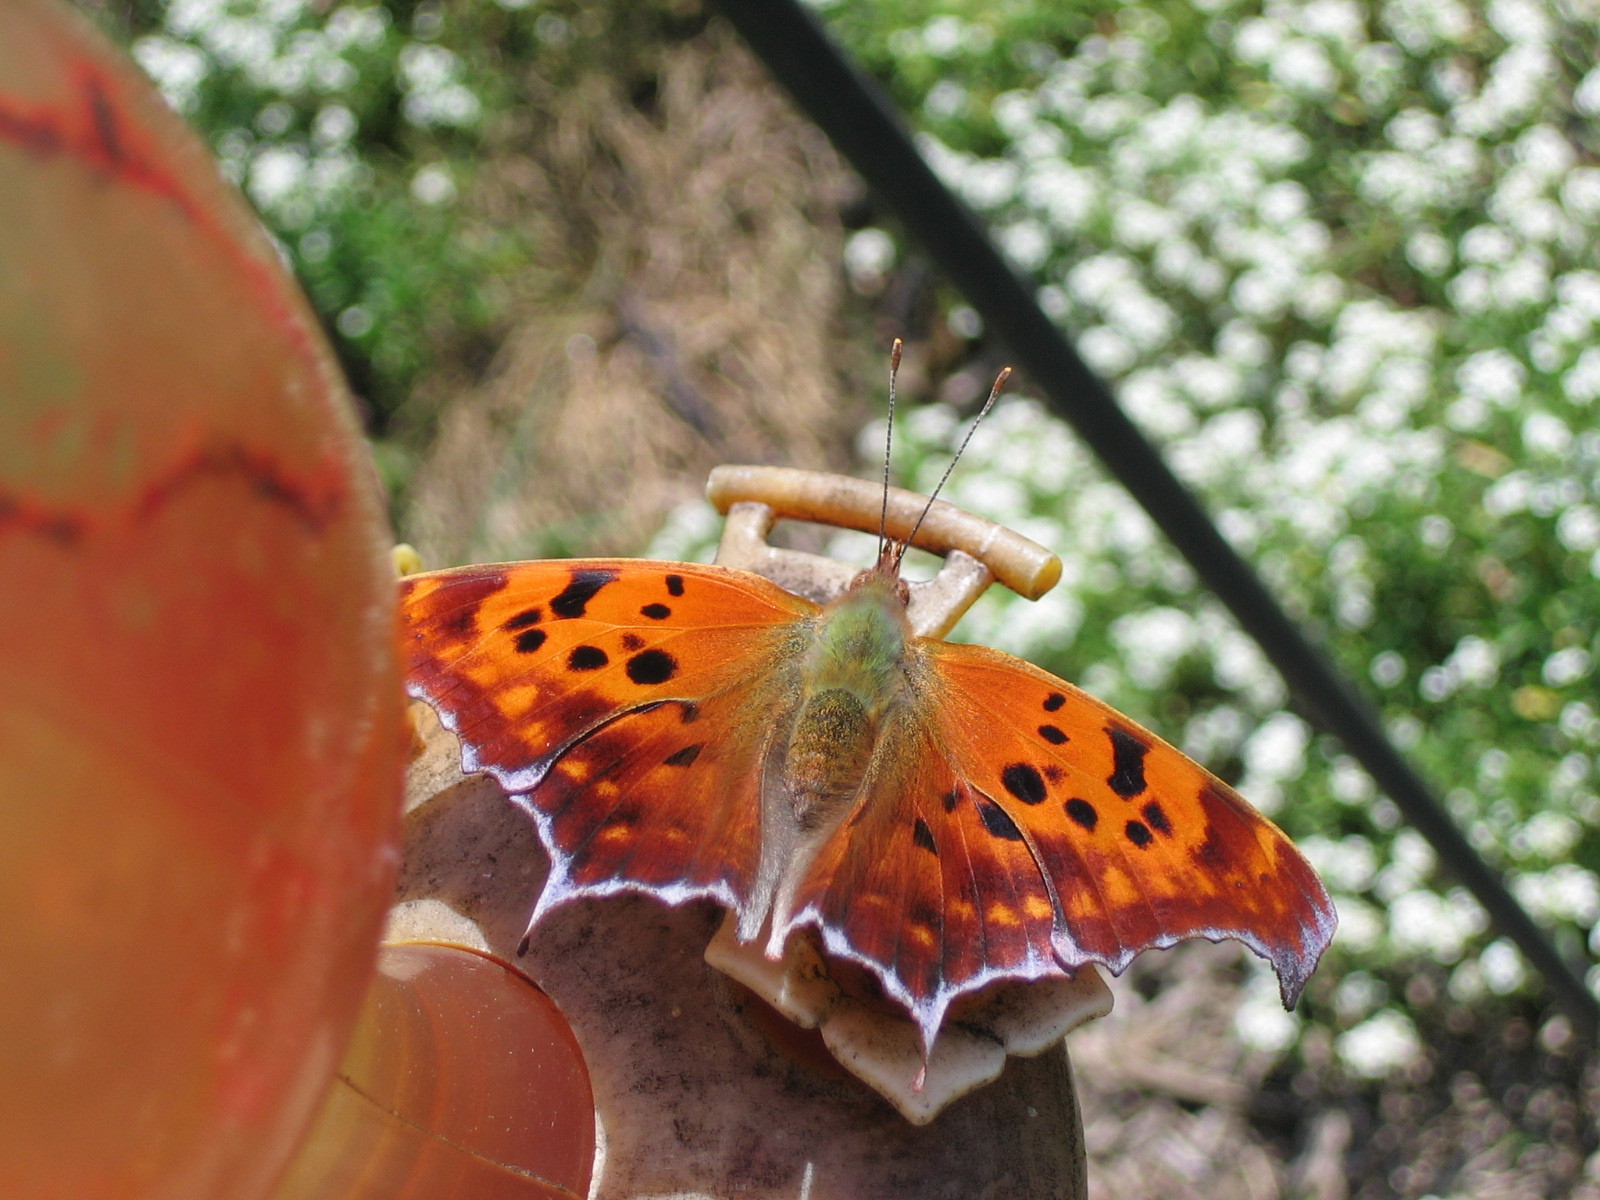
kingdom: Animalia
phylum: Arthropoda
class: Insecta
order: Lepidoptera
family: Nymphalidae
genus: Polygonia
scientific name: Polygonia interrogationis
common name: Question mark
